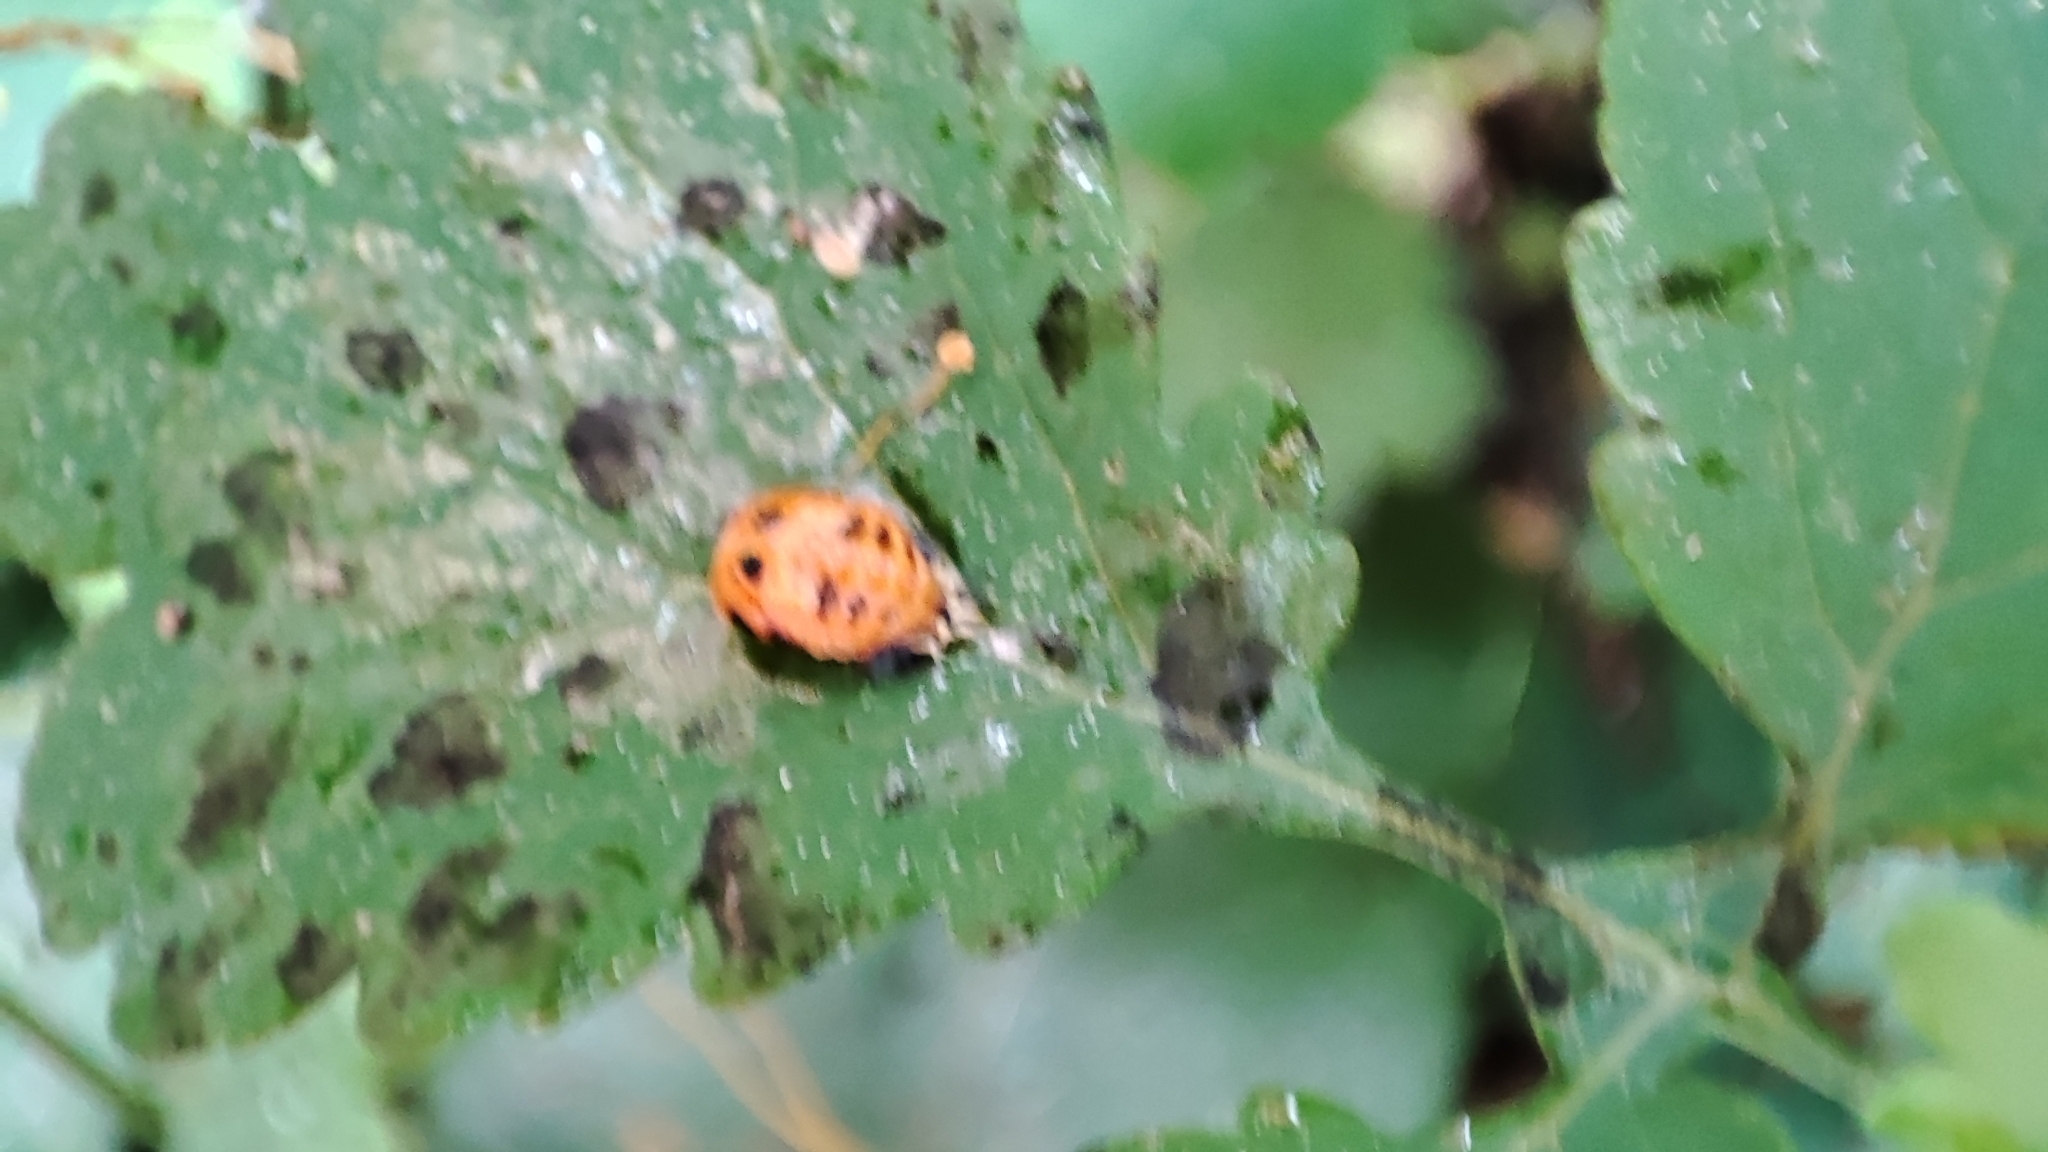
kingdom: Animalia
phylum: Arthropoda
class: Insecta
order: Coleoptera
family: Coccinellidae
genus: Harmonia
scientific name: Harmonia axyridis
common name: Harlequin ladybird
